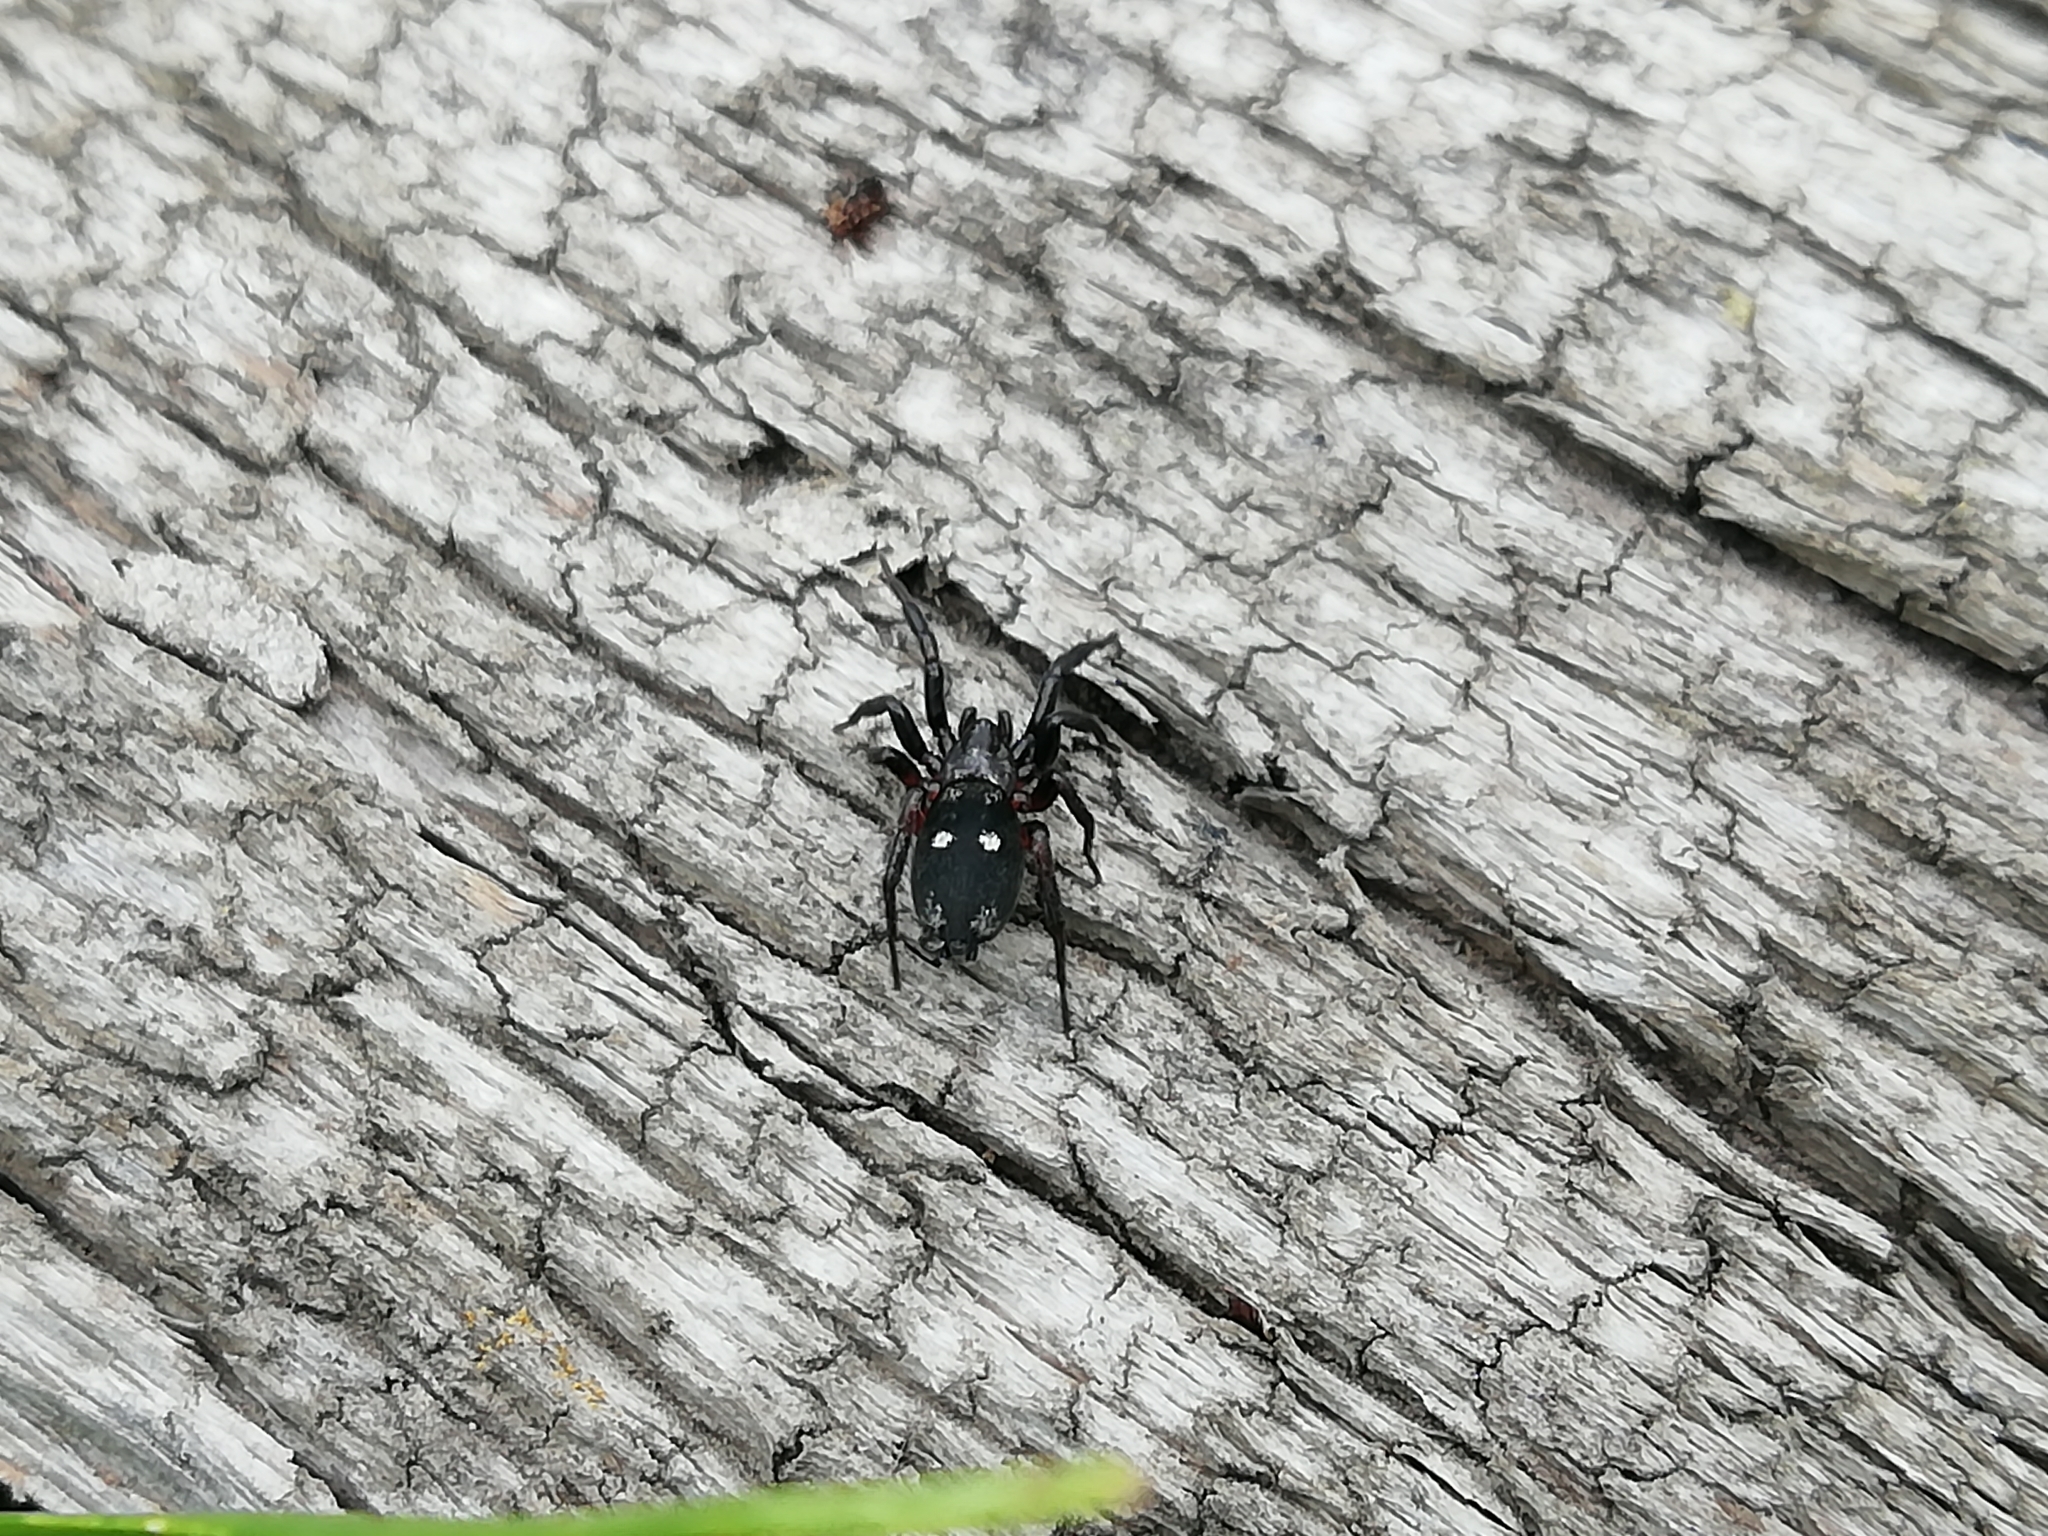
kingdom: Animalia
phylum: Arthropoda
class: Arachnida
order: Araneae
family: Gnaphosidae
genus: Callilepis
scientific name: Callilepis nocturna
